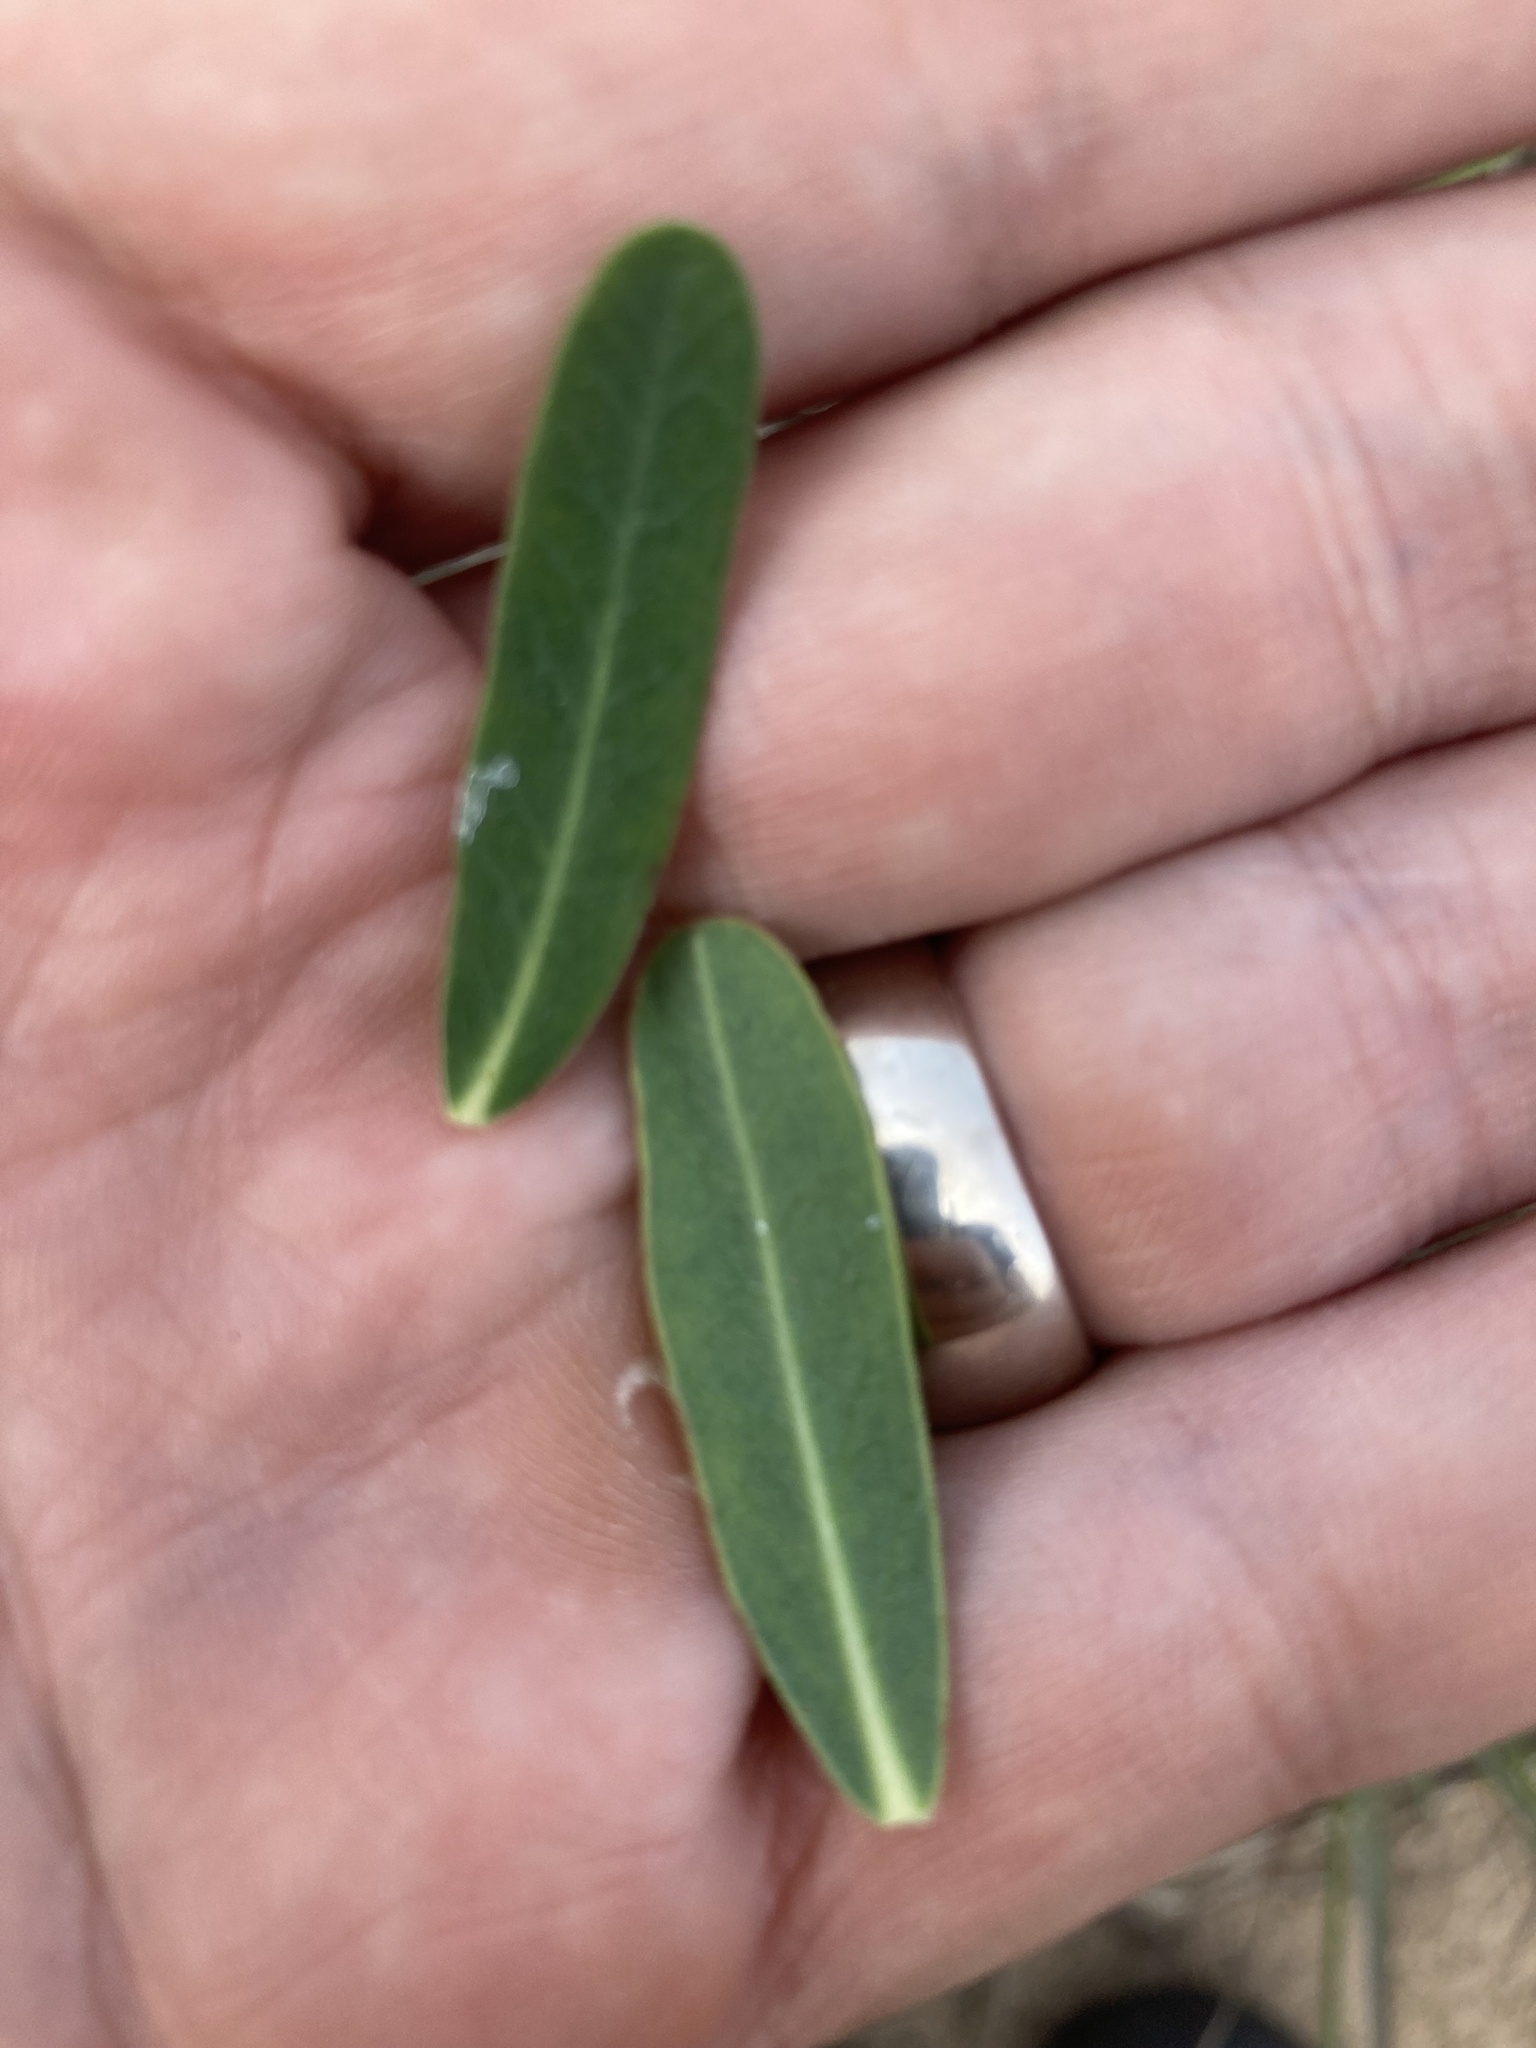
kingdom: Plantae
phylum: Tracheophyta
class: Magnoliopsida
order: Malpighiales
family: Euphorbiaceae
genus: Euphorbia
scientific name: Euphorbia corollata
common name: Flowering spurge
